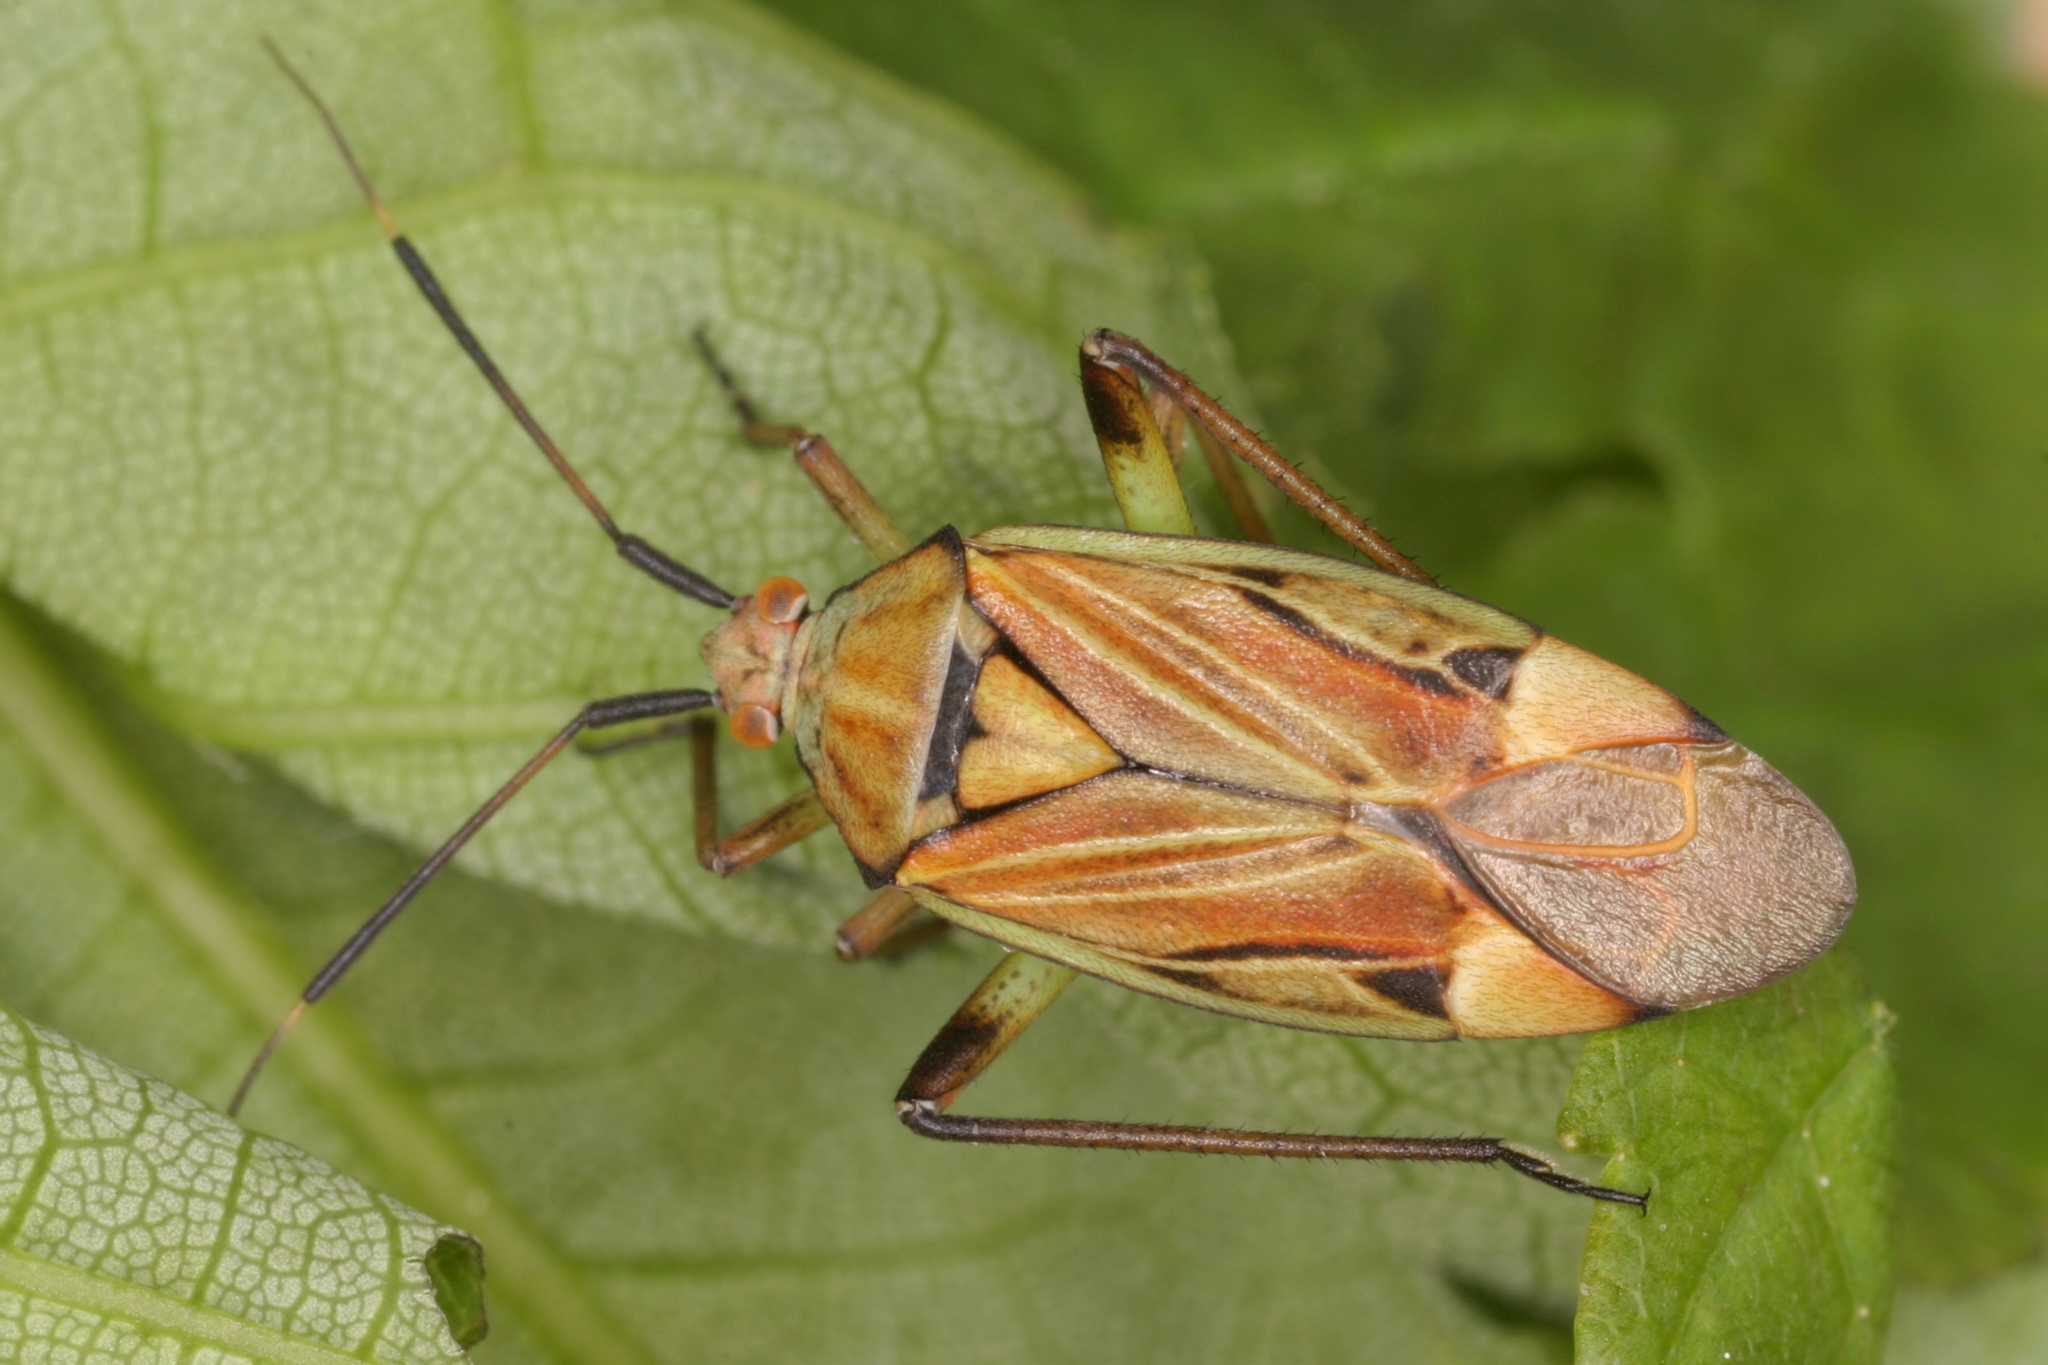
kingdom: Animalia
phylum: Arthropoda
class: Insecta
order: Hemiptera
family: Miridae
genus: Actinonotus
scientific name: Actinonotus pulcher
